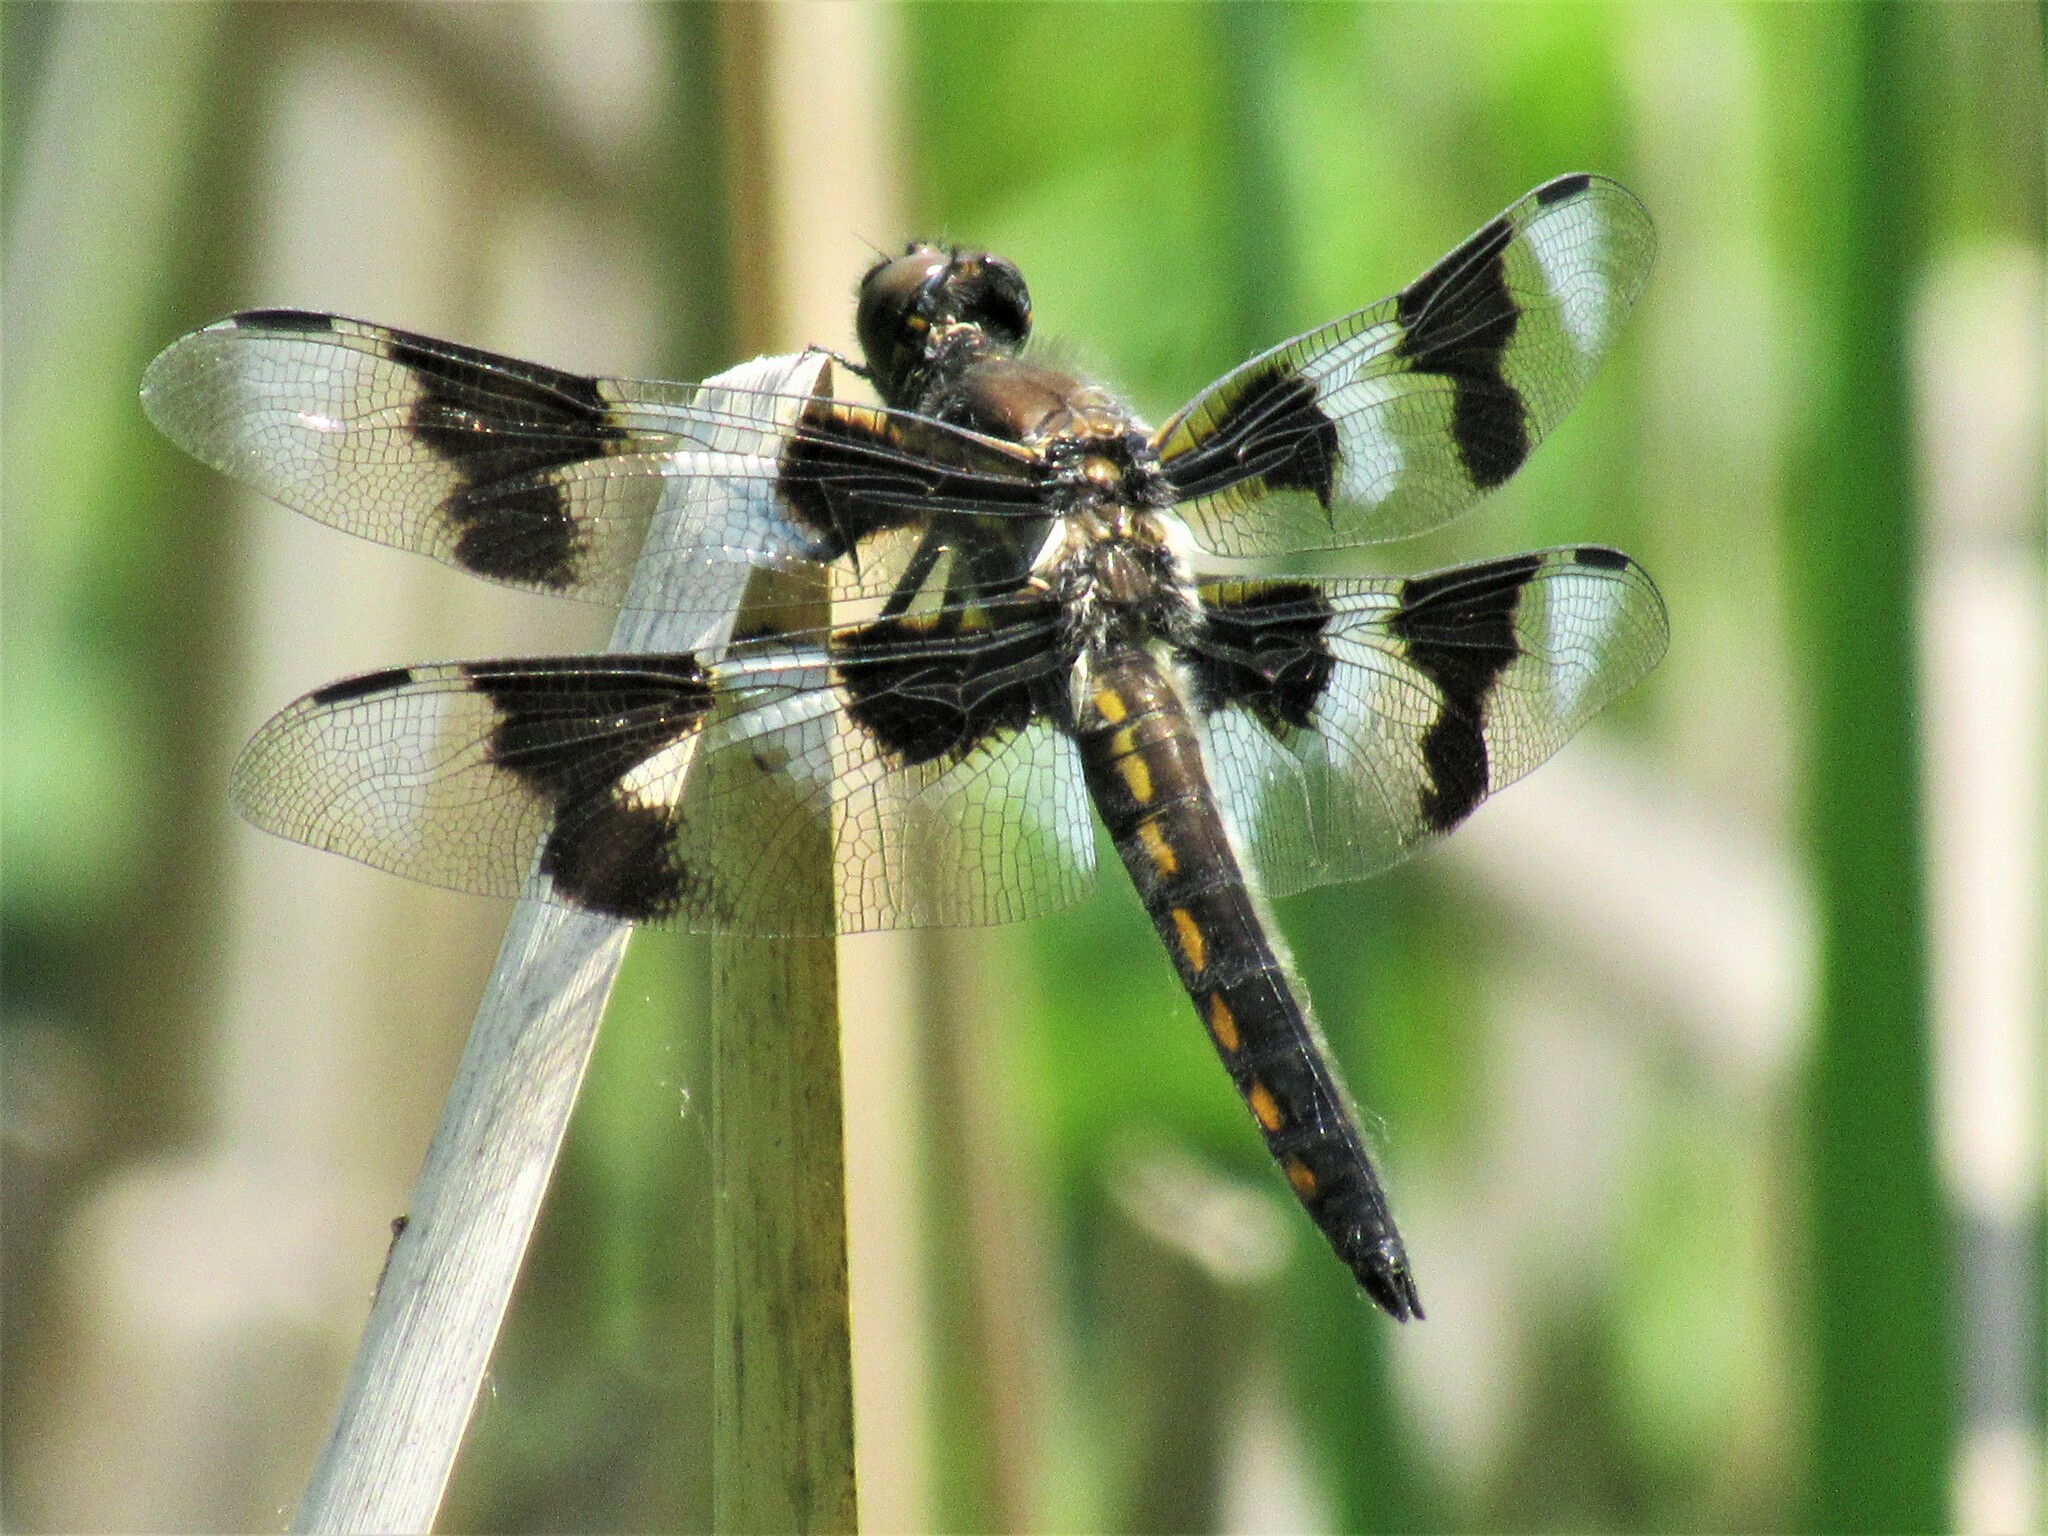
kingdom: Animalia
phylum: Arthropoda
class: Insecta
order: Odonata
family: Libellulidae
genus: Libellula
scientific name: Libellula forensis
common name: Eight-spotted skimmer
